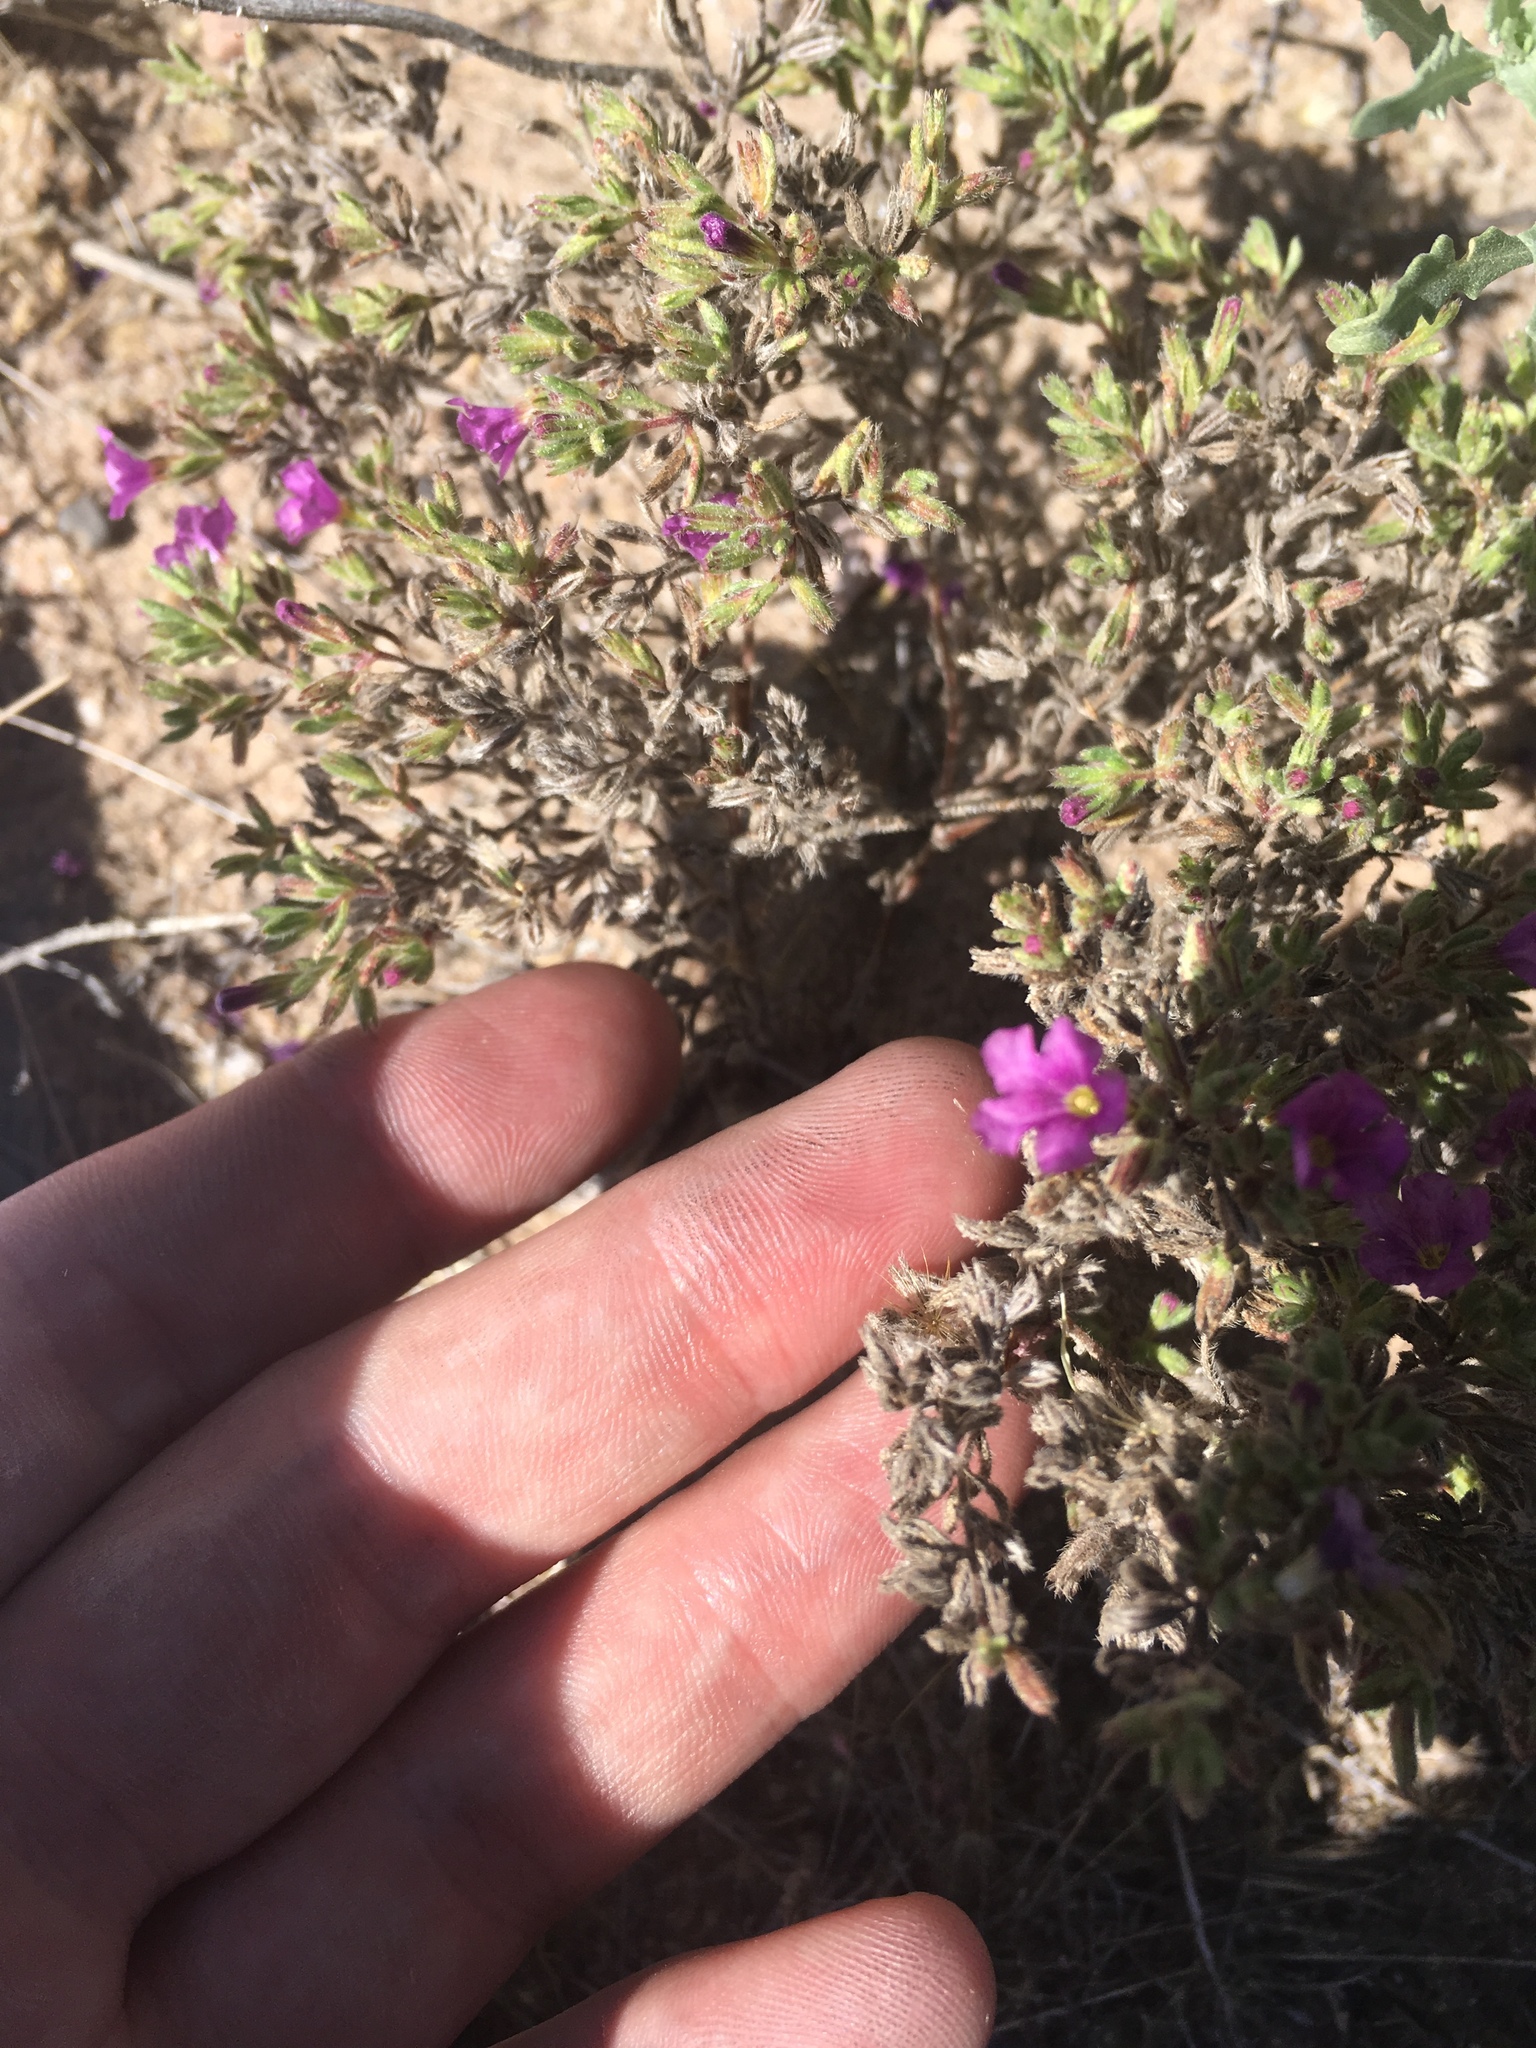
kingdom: Plantae
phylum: Tracheophyta
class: Magnoliopsida
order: Boraginales
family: Namaceae
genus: Nama
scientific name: Nama hispida
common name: Bristly nama
